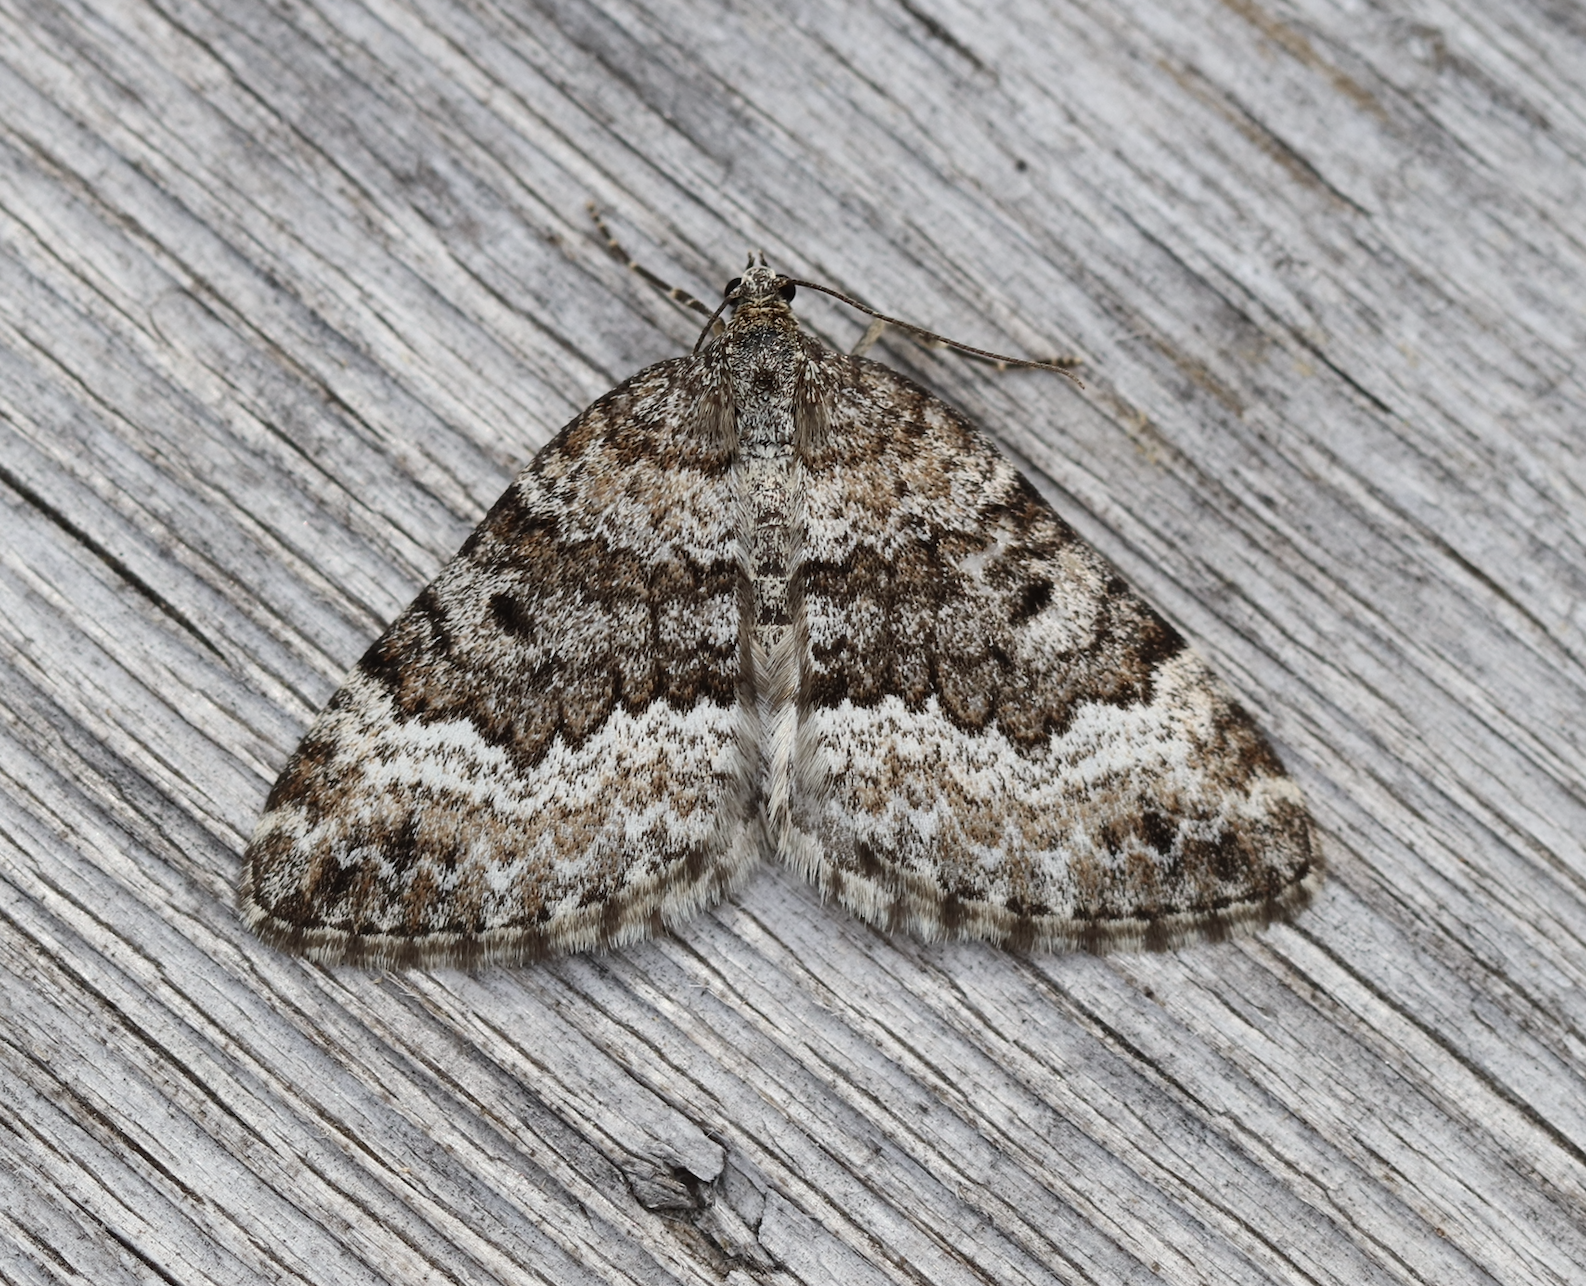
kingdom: Animalia
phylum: Arthropoda
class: Insecta
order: Lepidoptera
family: Geometridae
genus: Colostygia
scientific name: Colostygia turbata
